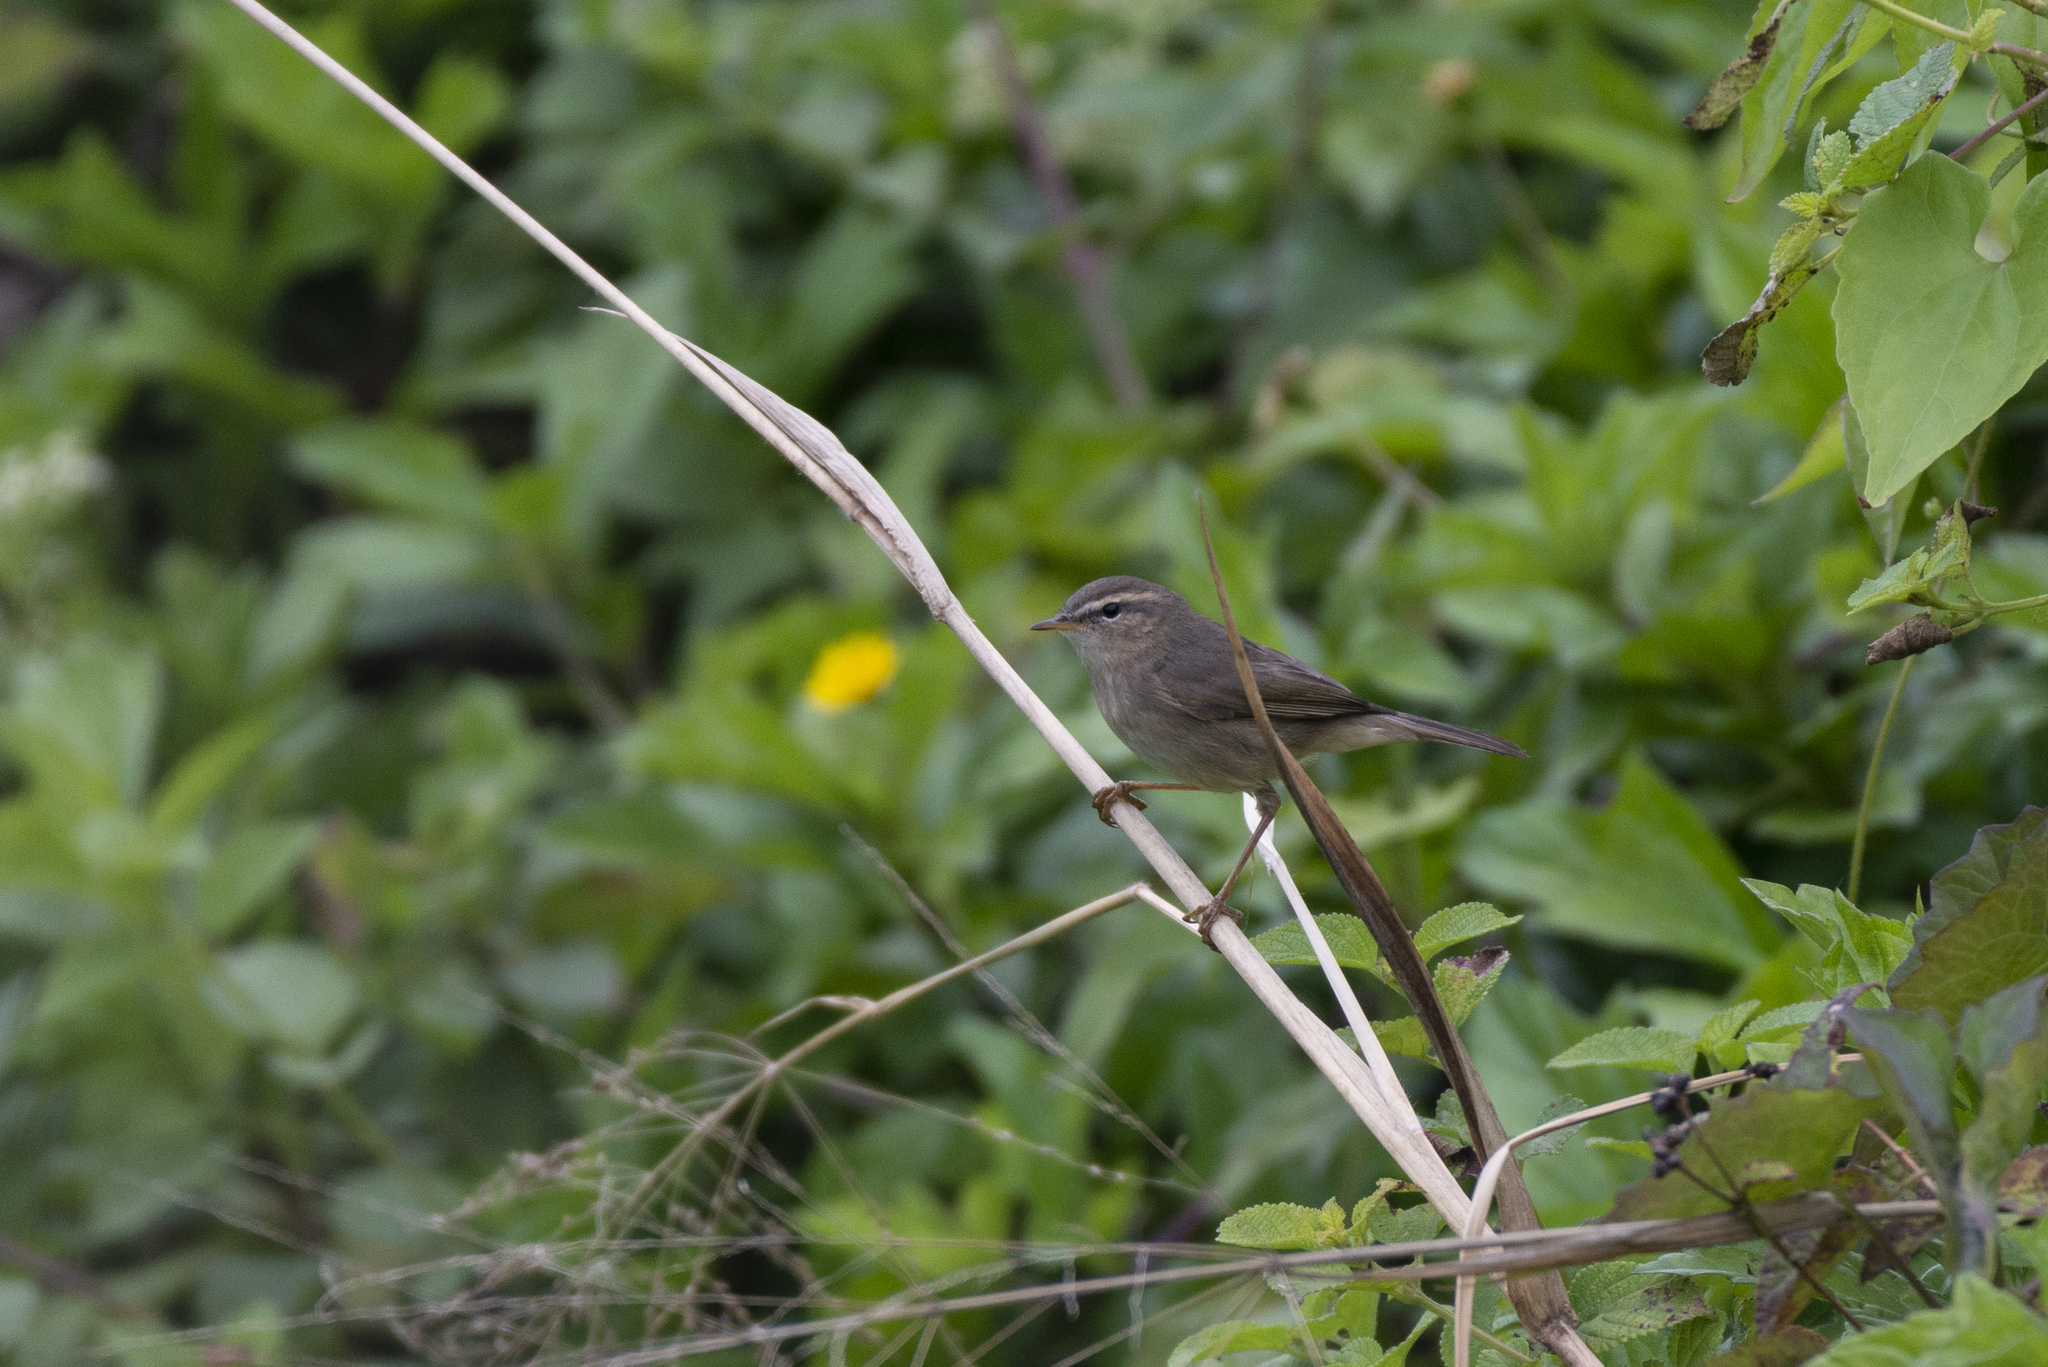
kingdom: Animalia
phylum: Chordata
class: Aves
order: Passeriformes
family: Phylloscopidae
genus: Phylloscopus
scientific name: Phylloscopus fuscatus
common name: Dusky warbler
